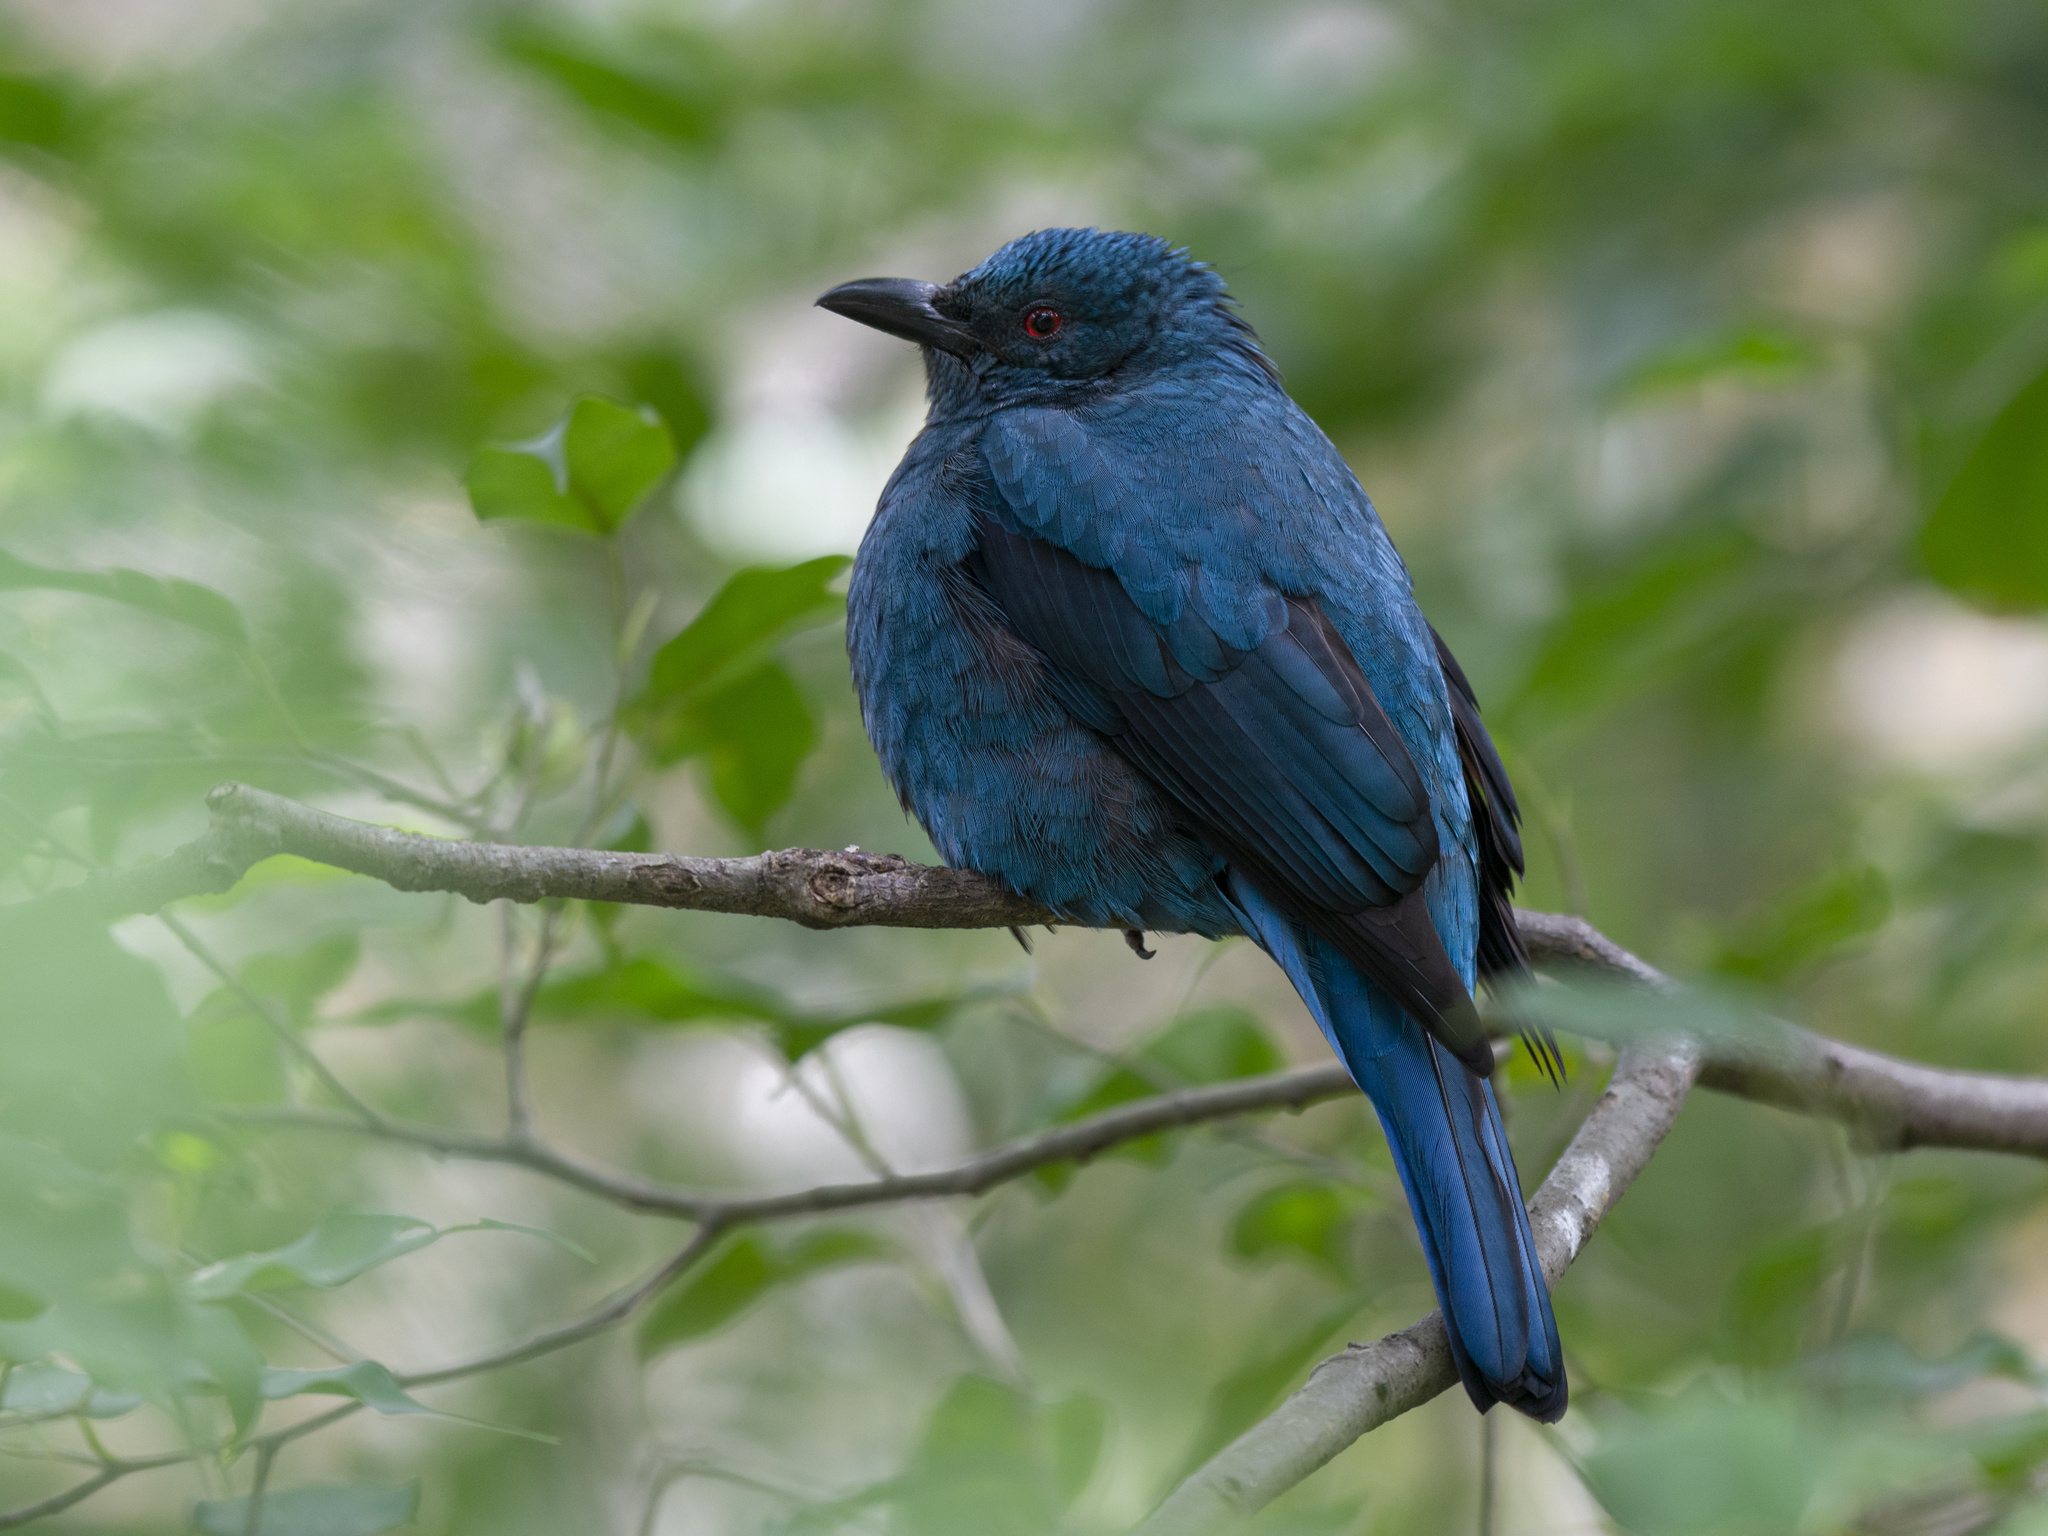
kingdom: Animalia
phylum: Chordata
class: Aves
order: Passeriformes
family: Irenidae
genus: Irena
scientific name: Irena puella
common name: Asian fairy-bluebird
